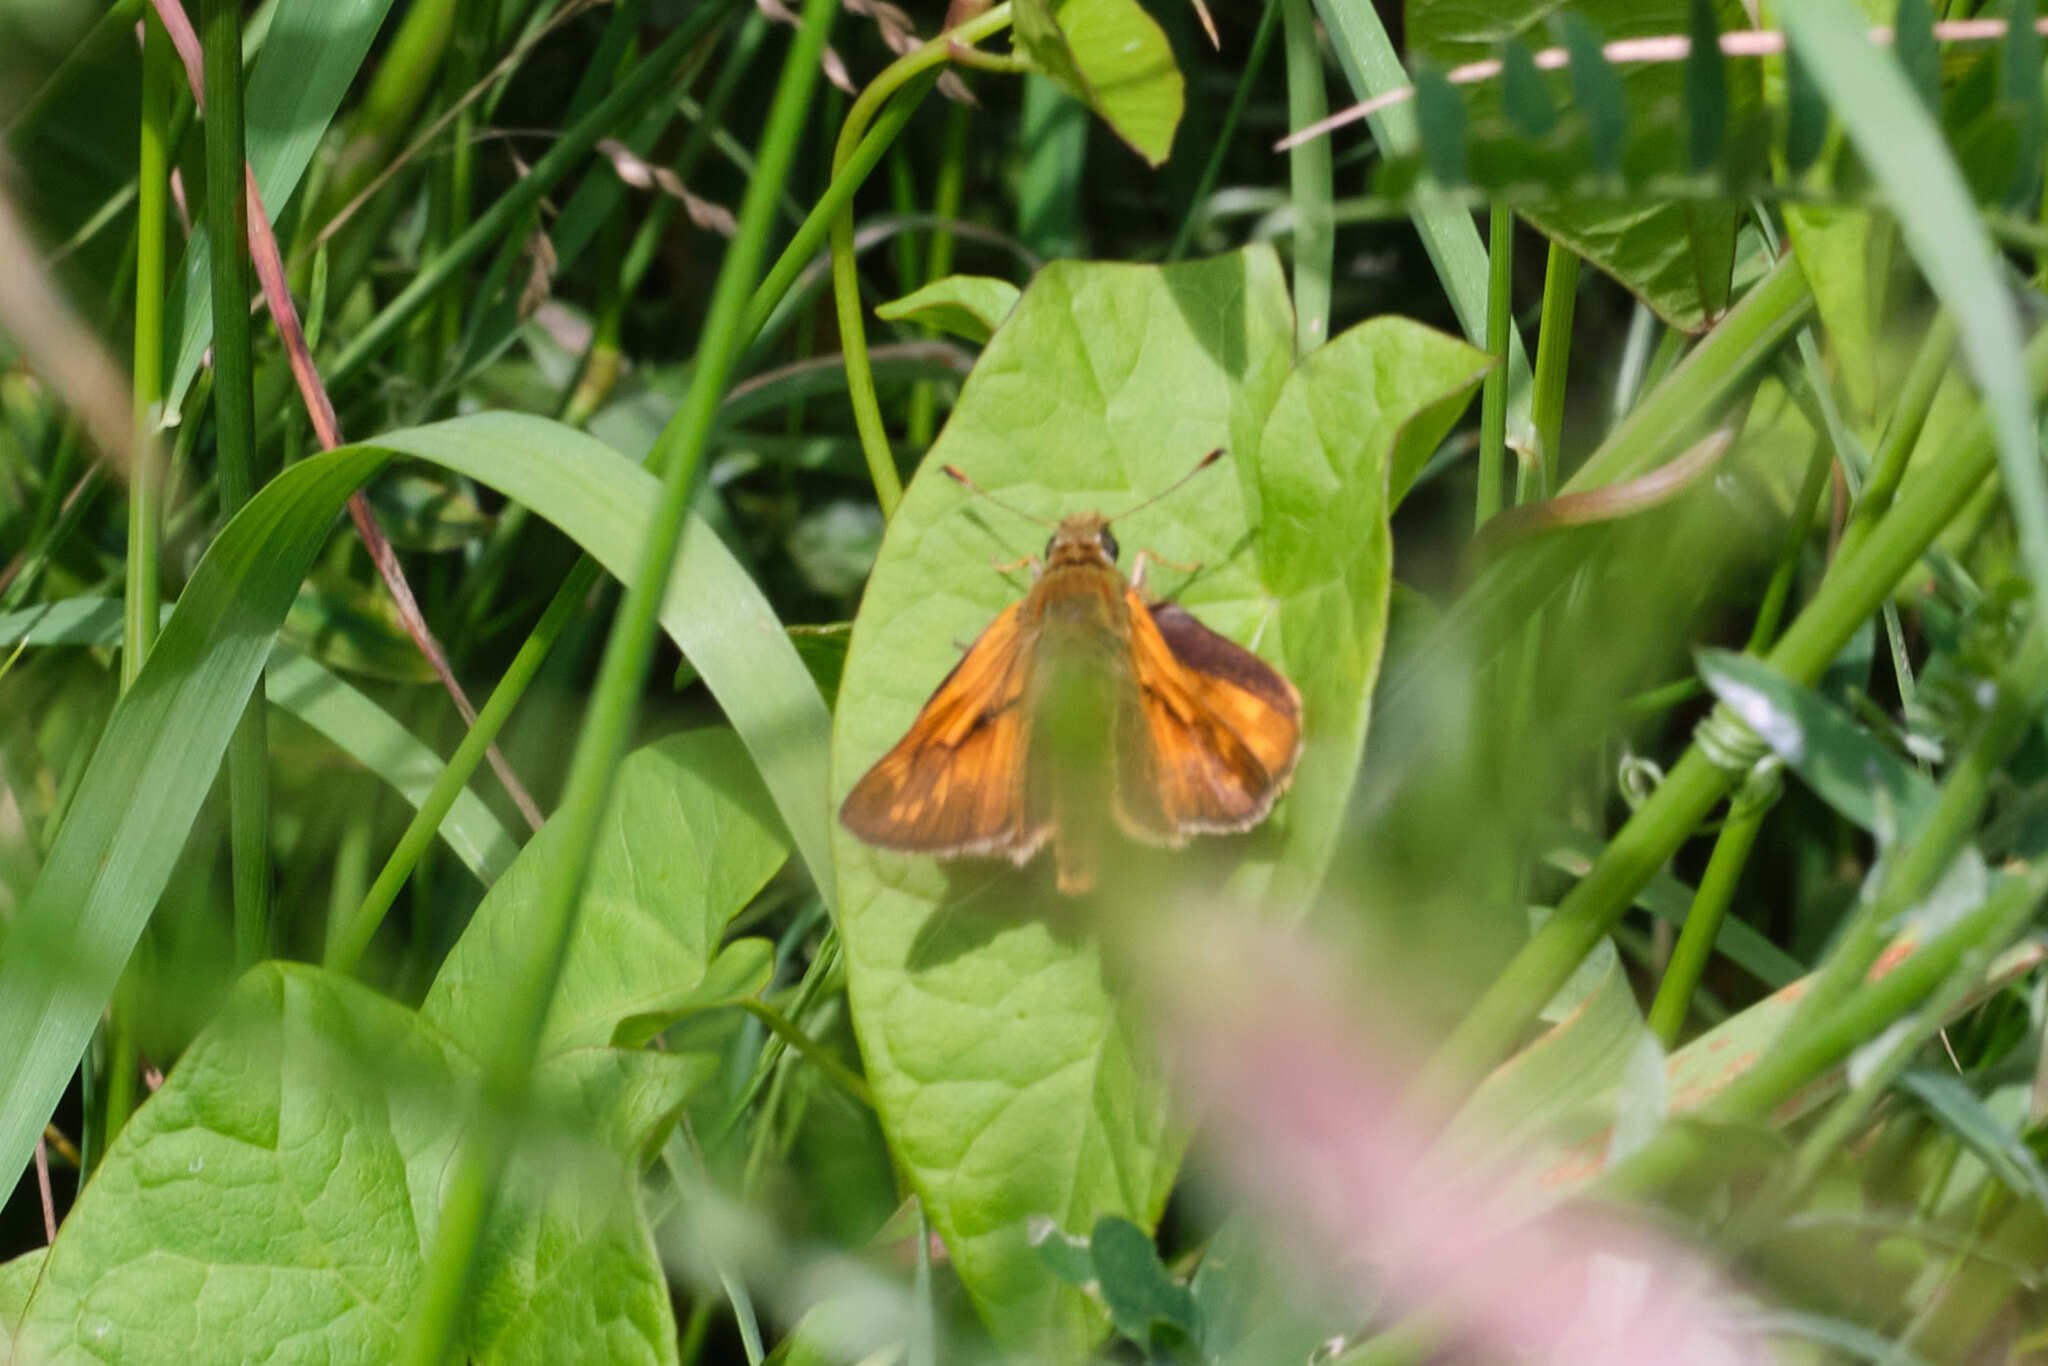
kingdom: Animalia
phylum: Arthropoda
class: Insecta
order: Lepidoptera
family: Hesperiidae
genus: Ochlodes
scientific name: Ochlodes venata
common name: Large skipper
